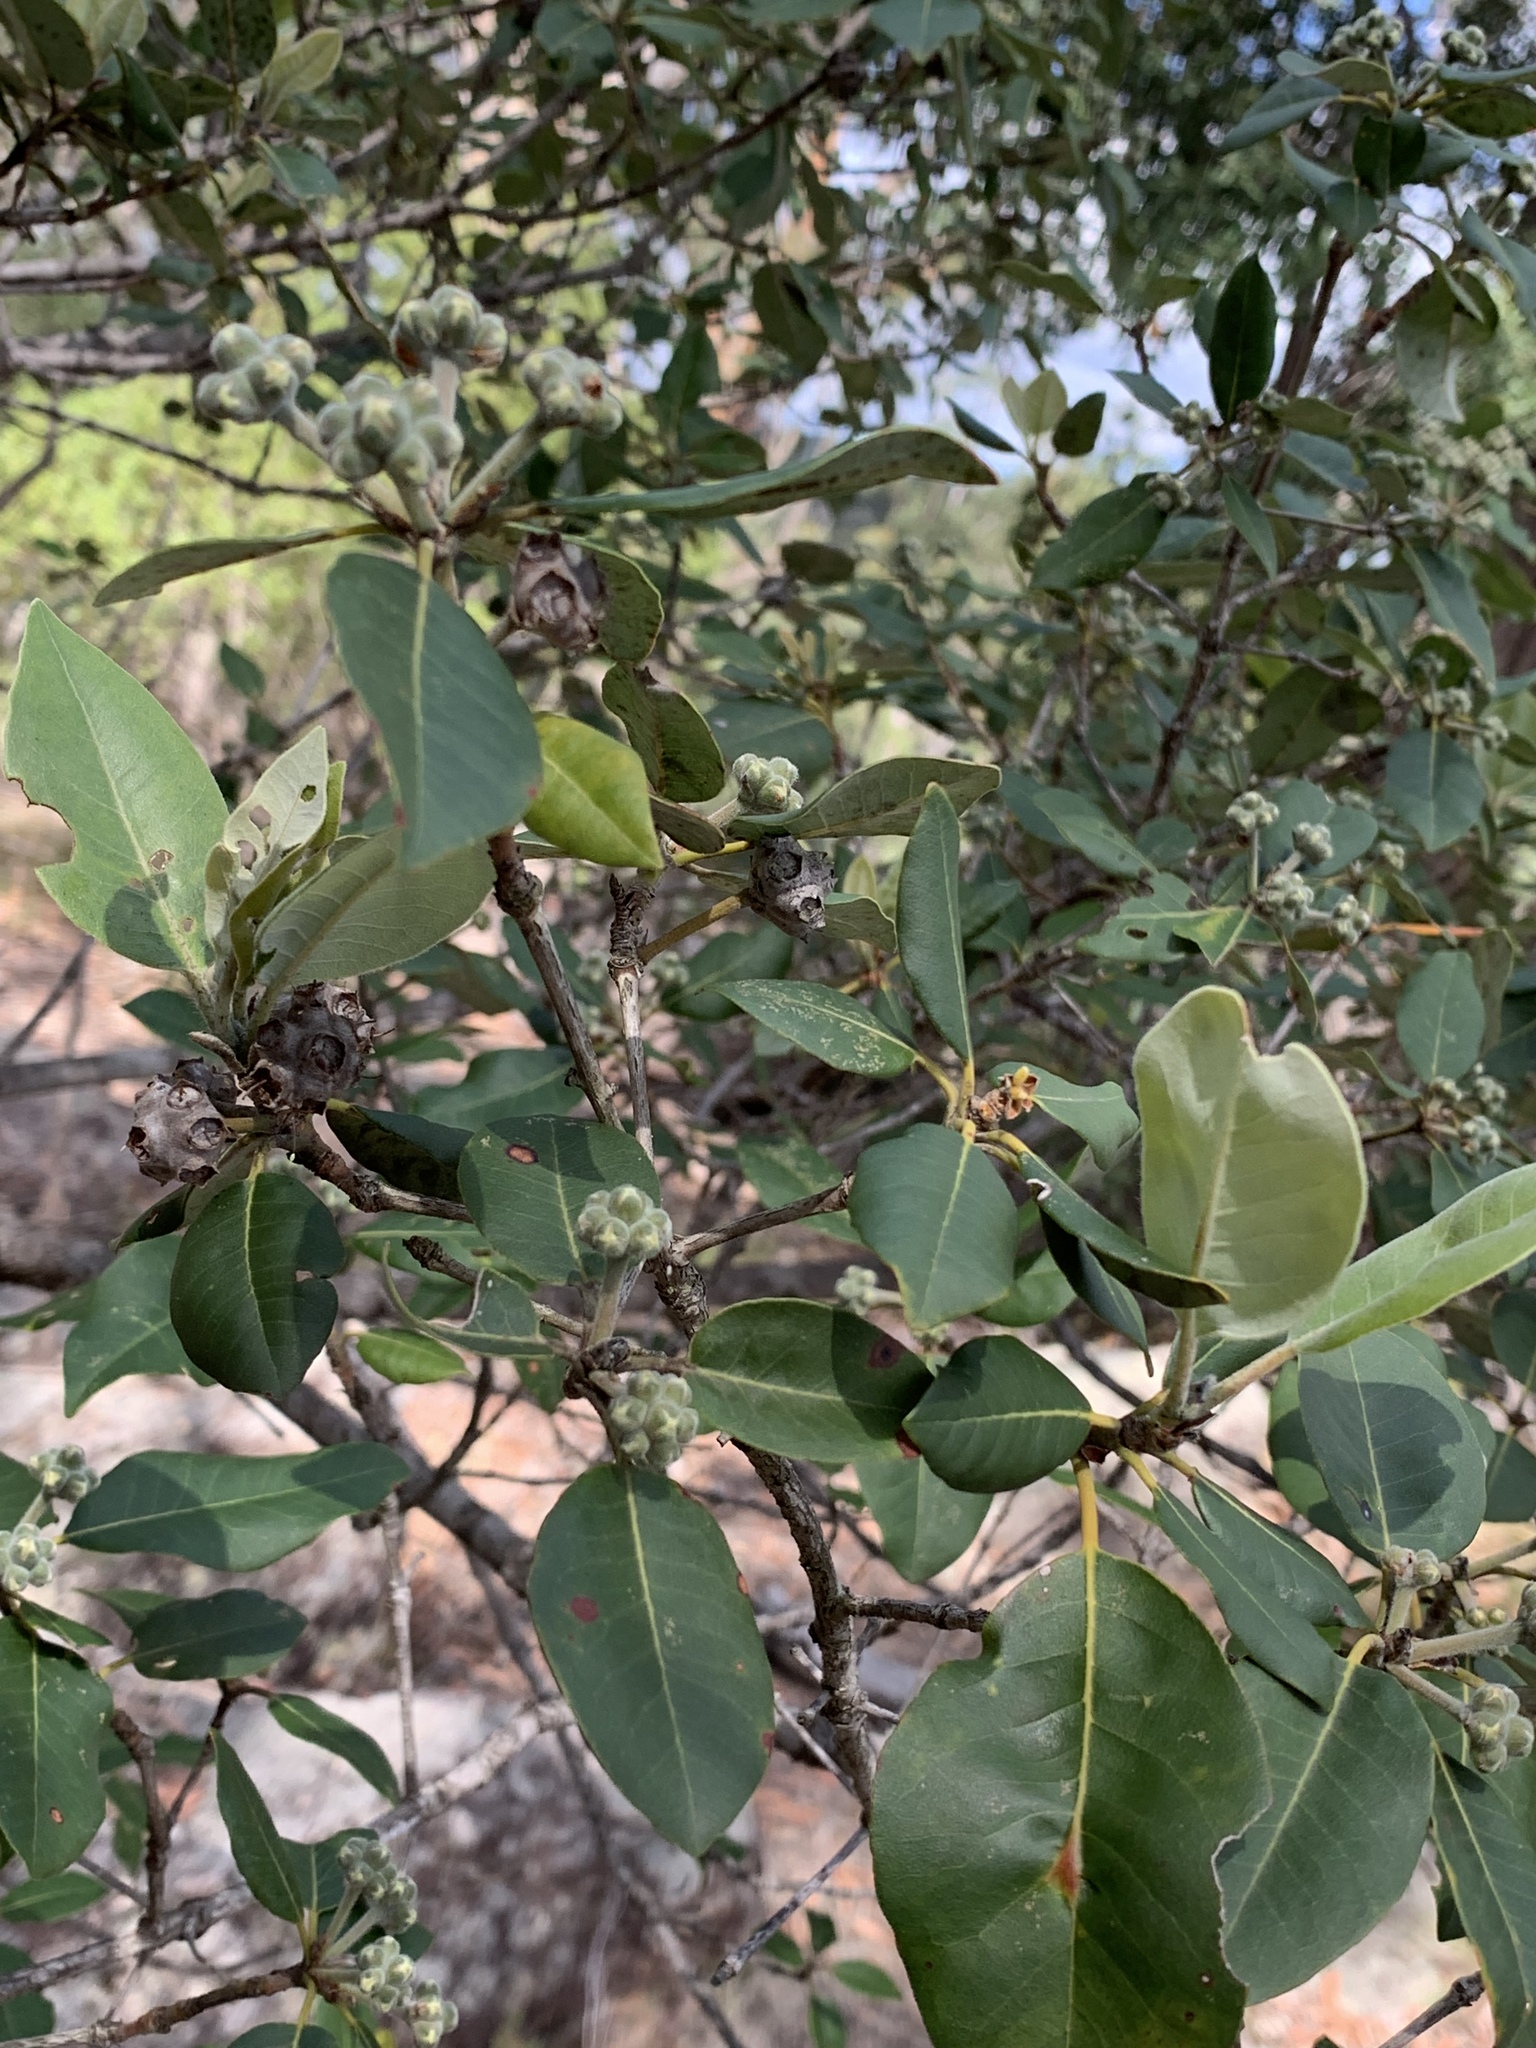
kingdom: Plantae
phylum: Tracheophyta
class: Magnoliopsida
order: Myrtales
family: Myrtaceae
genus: Syncarpia
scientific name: Syncarpia glomulifera
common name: Turpentine tree
